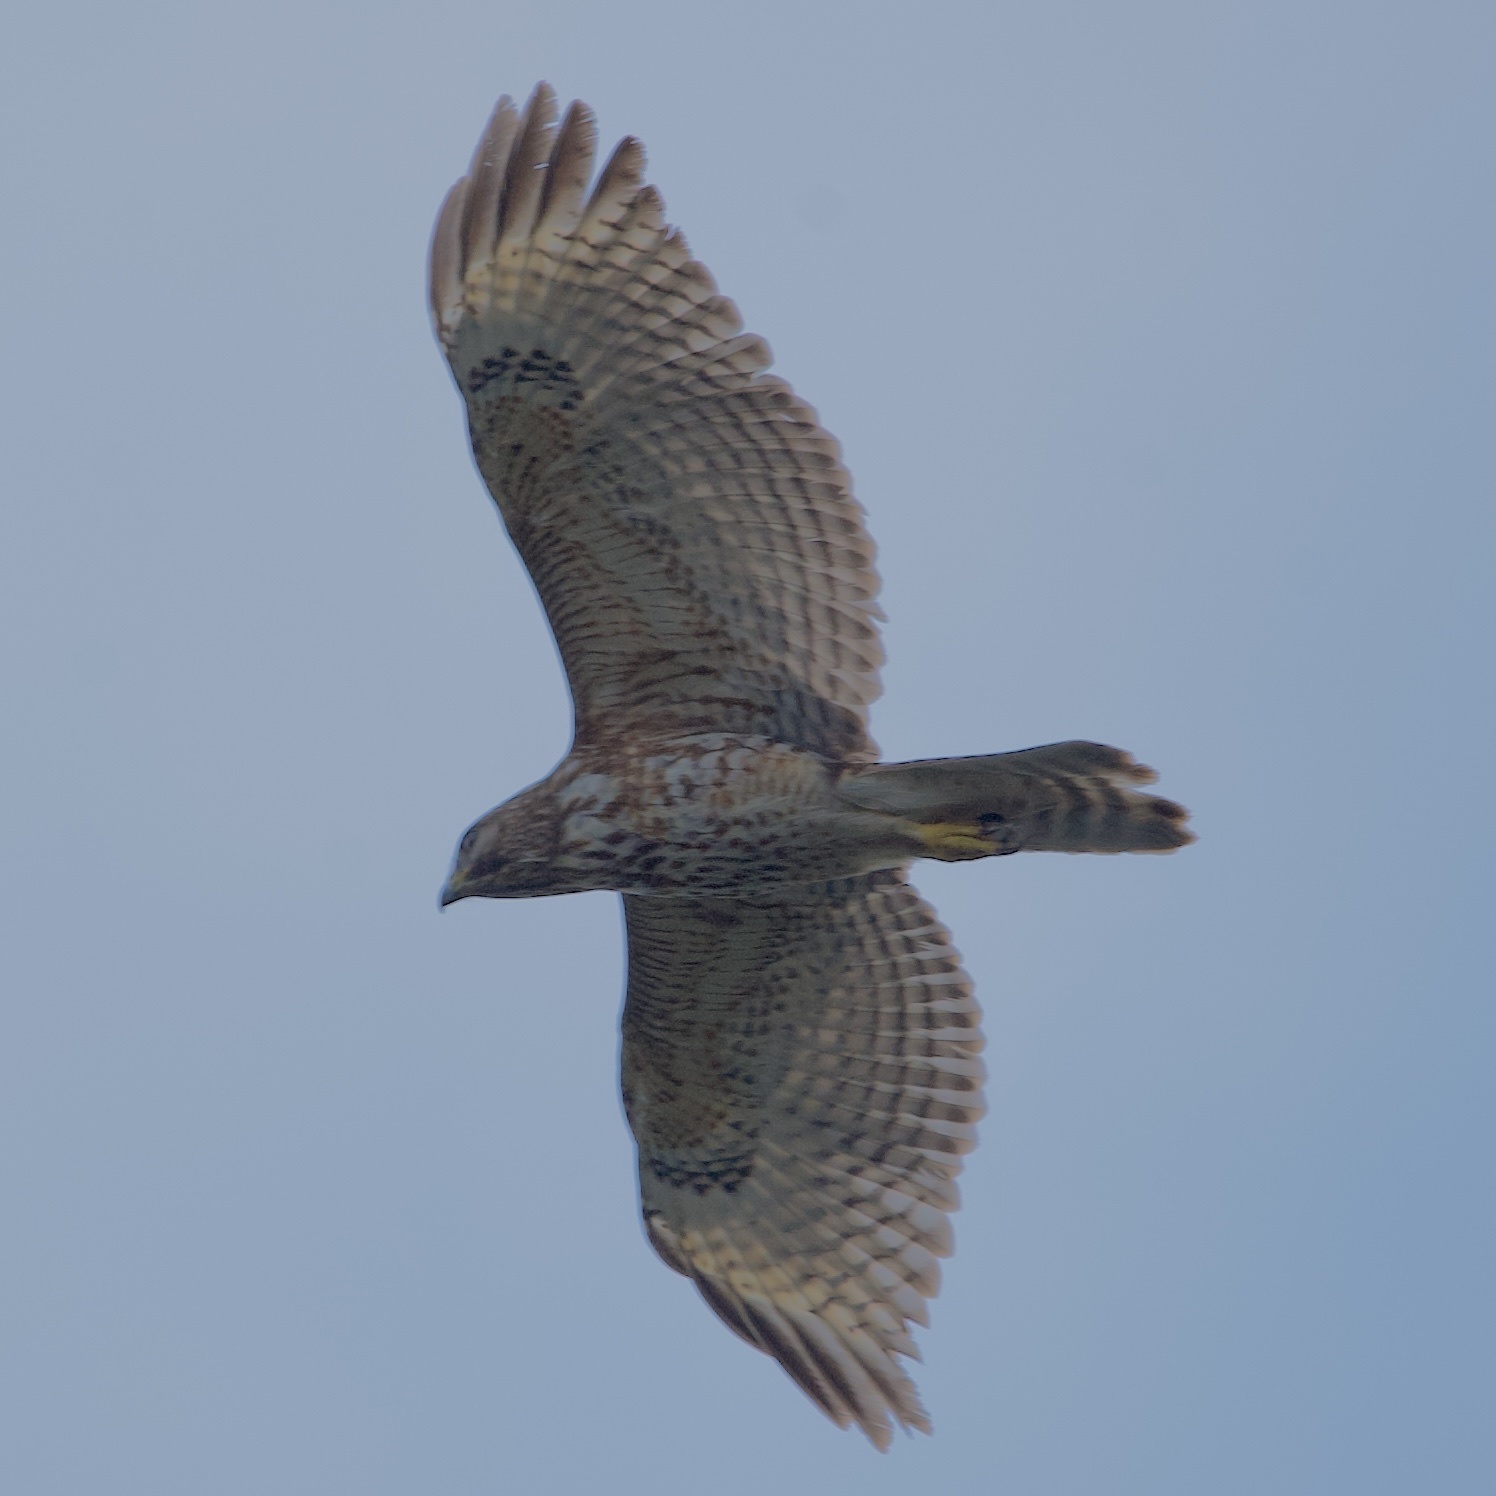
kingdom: Animalia
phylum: Chordata
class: Aves
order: Accipitriformes
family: Accipitridae
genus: Buteo
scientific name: Buteo lineatus
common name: Red-shouldered hawk
